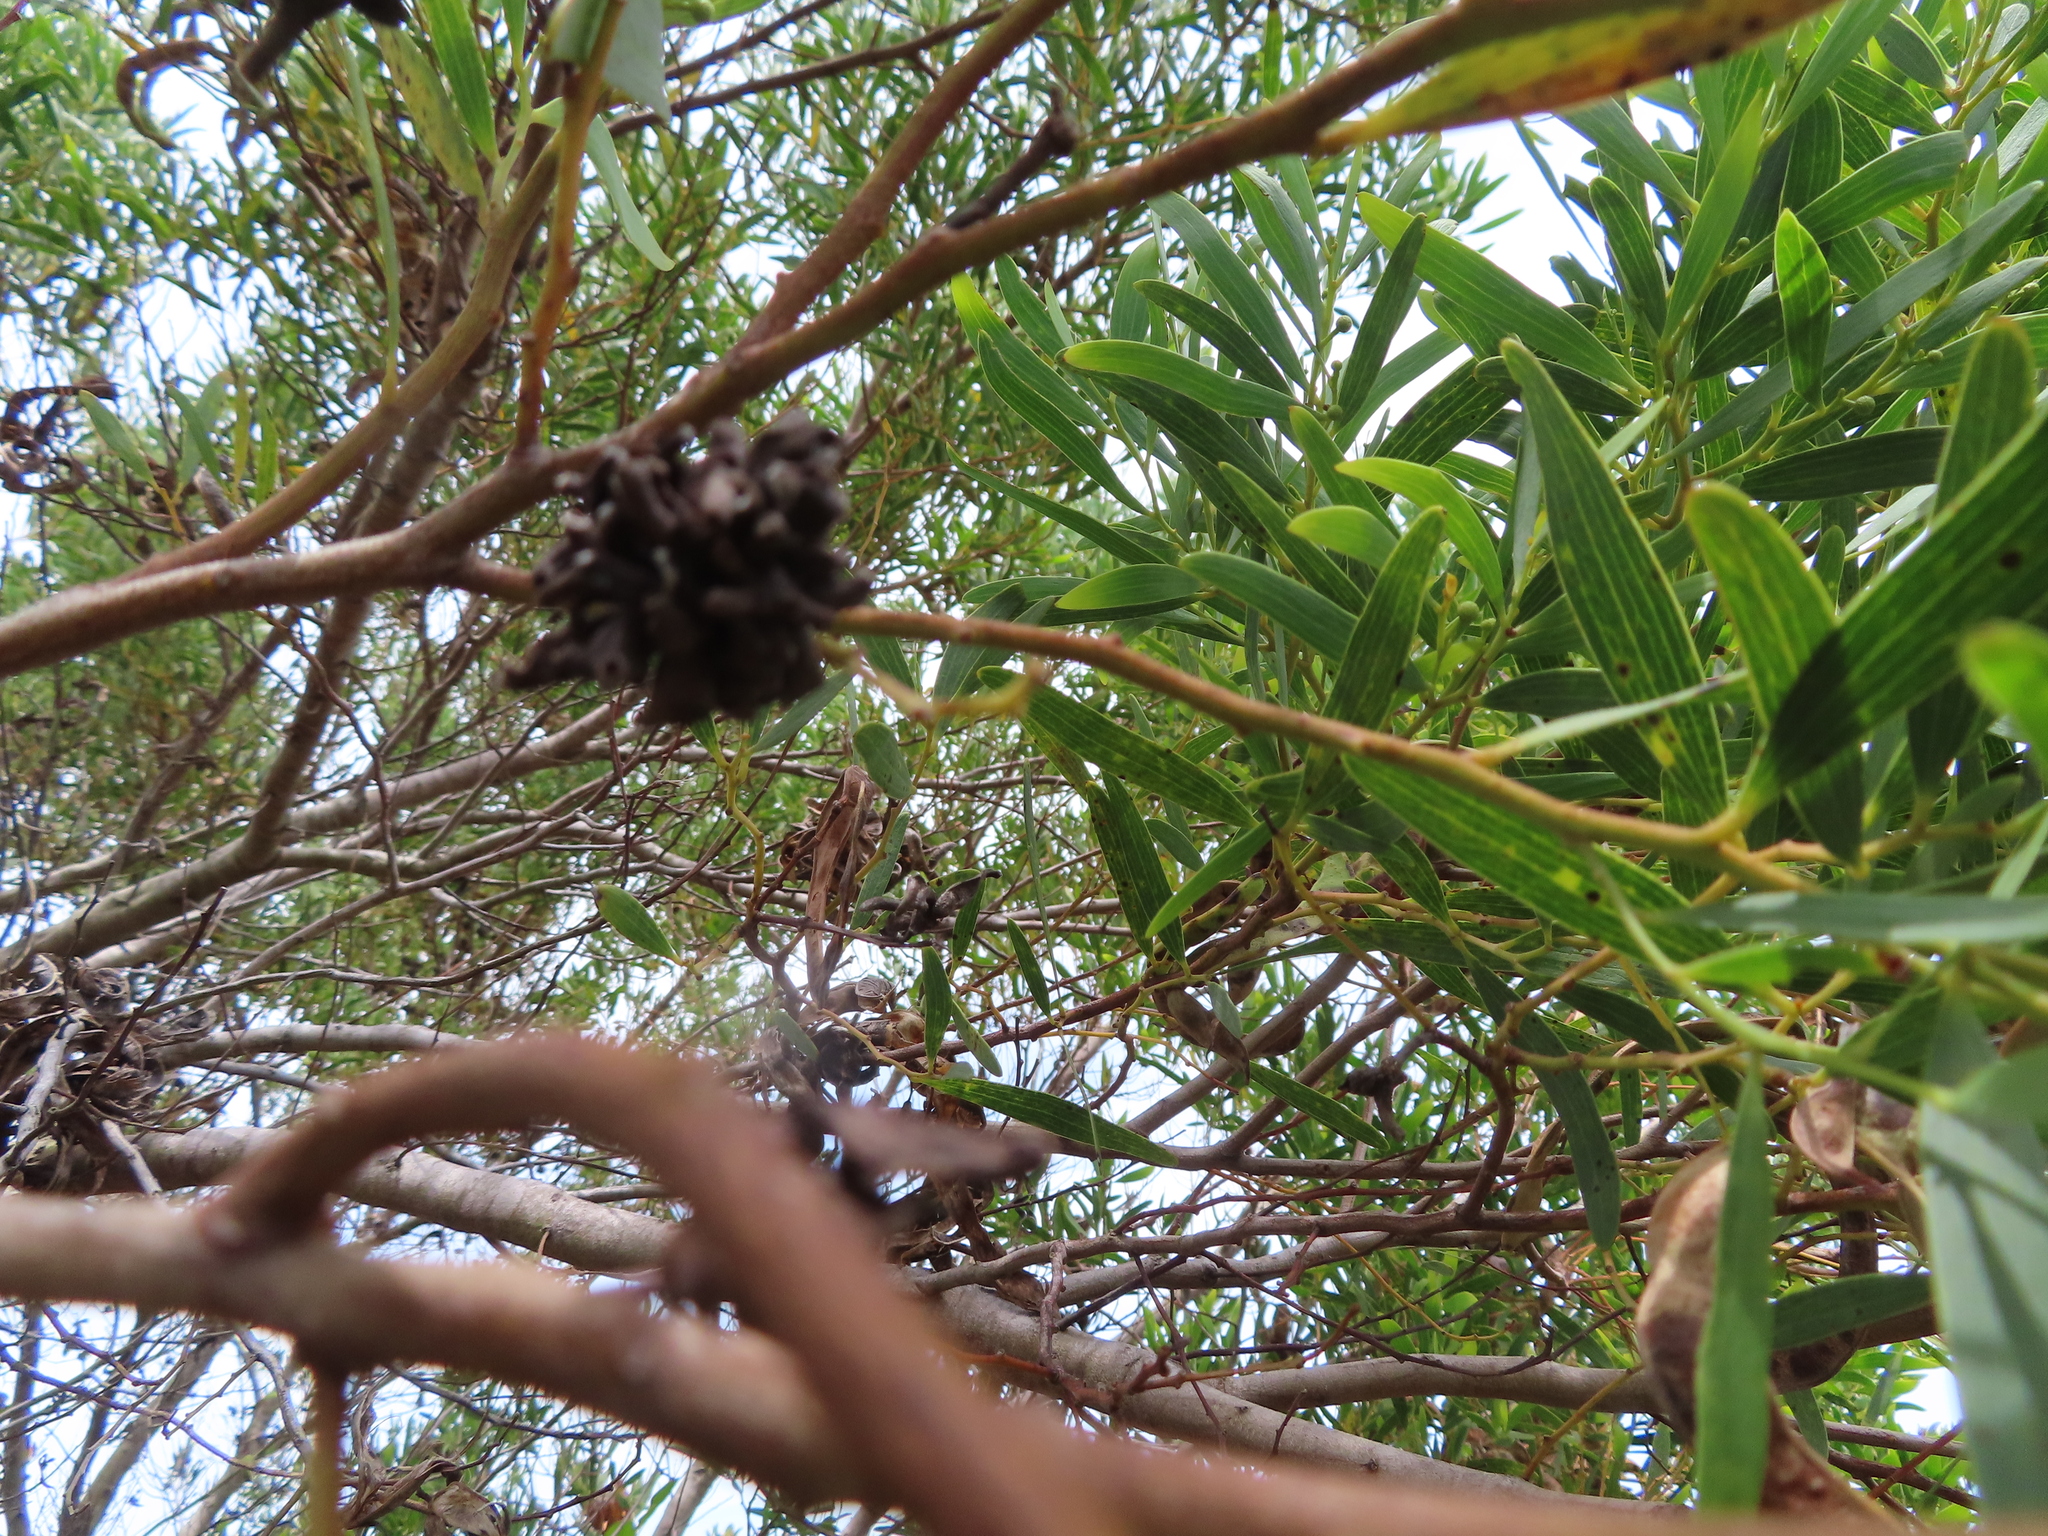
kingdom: Animalia
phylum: Arthropoda
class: Insecta
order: Diptera
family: Cecidomyiidae
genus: Dasineura
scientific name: Dasineura dielsi
